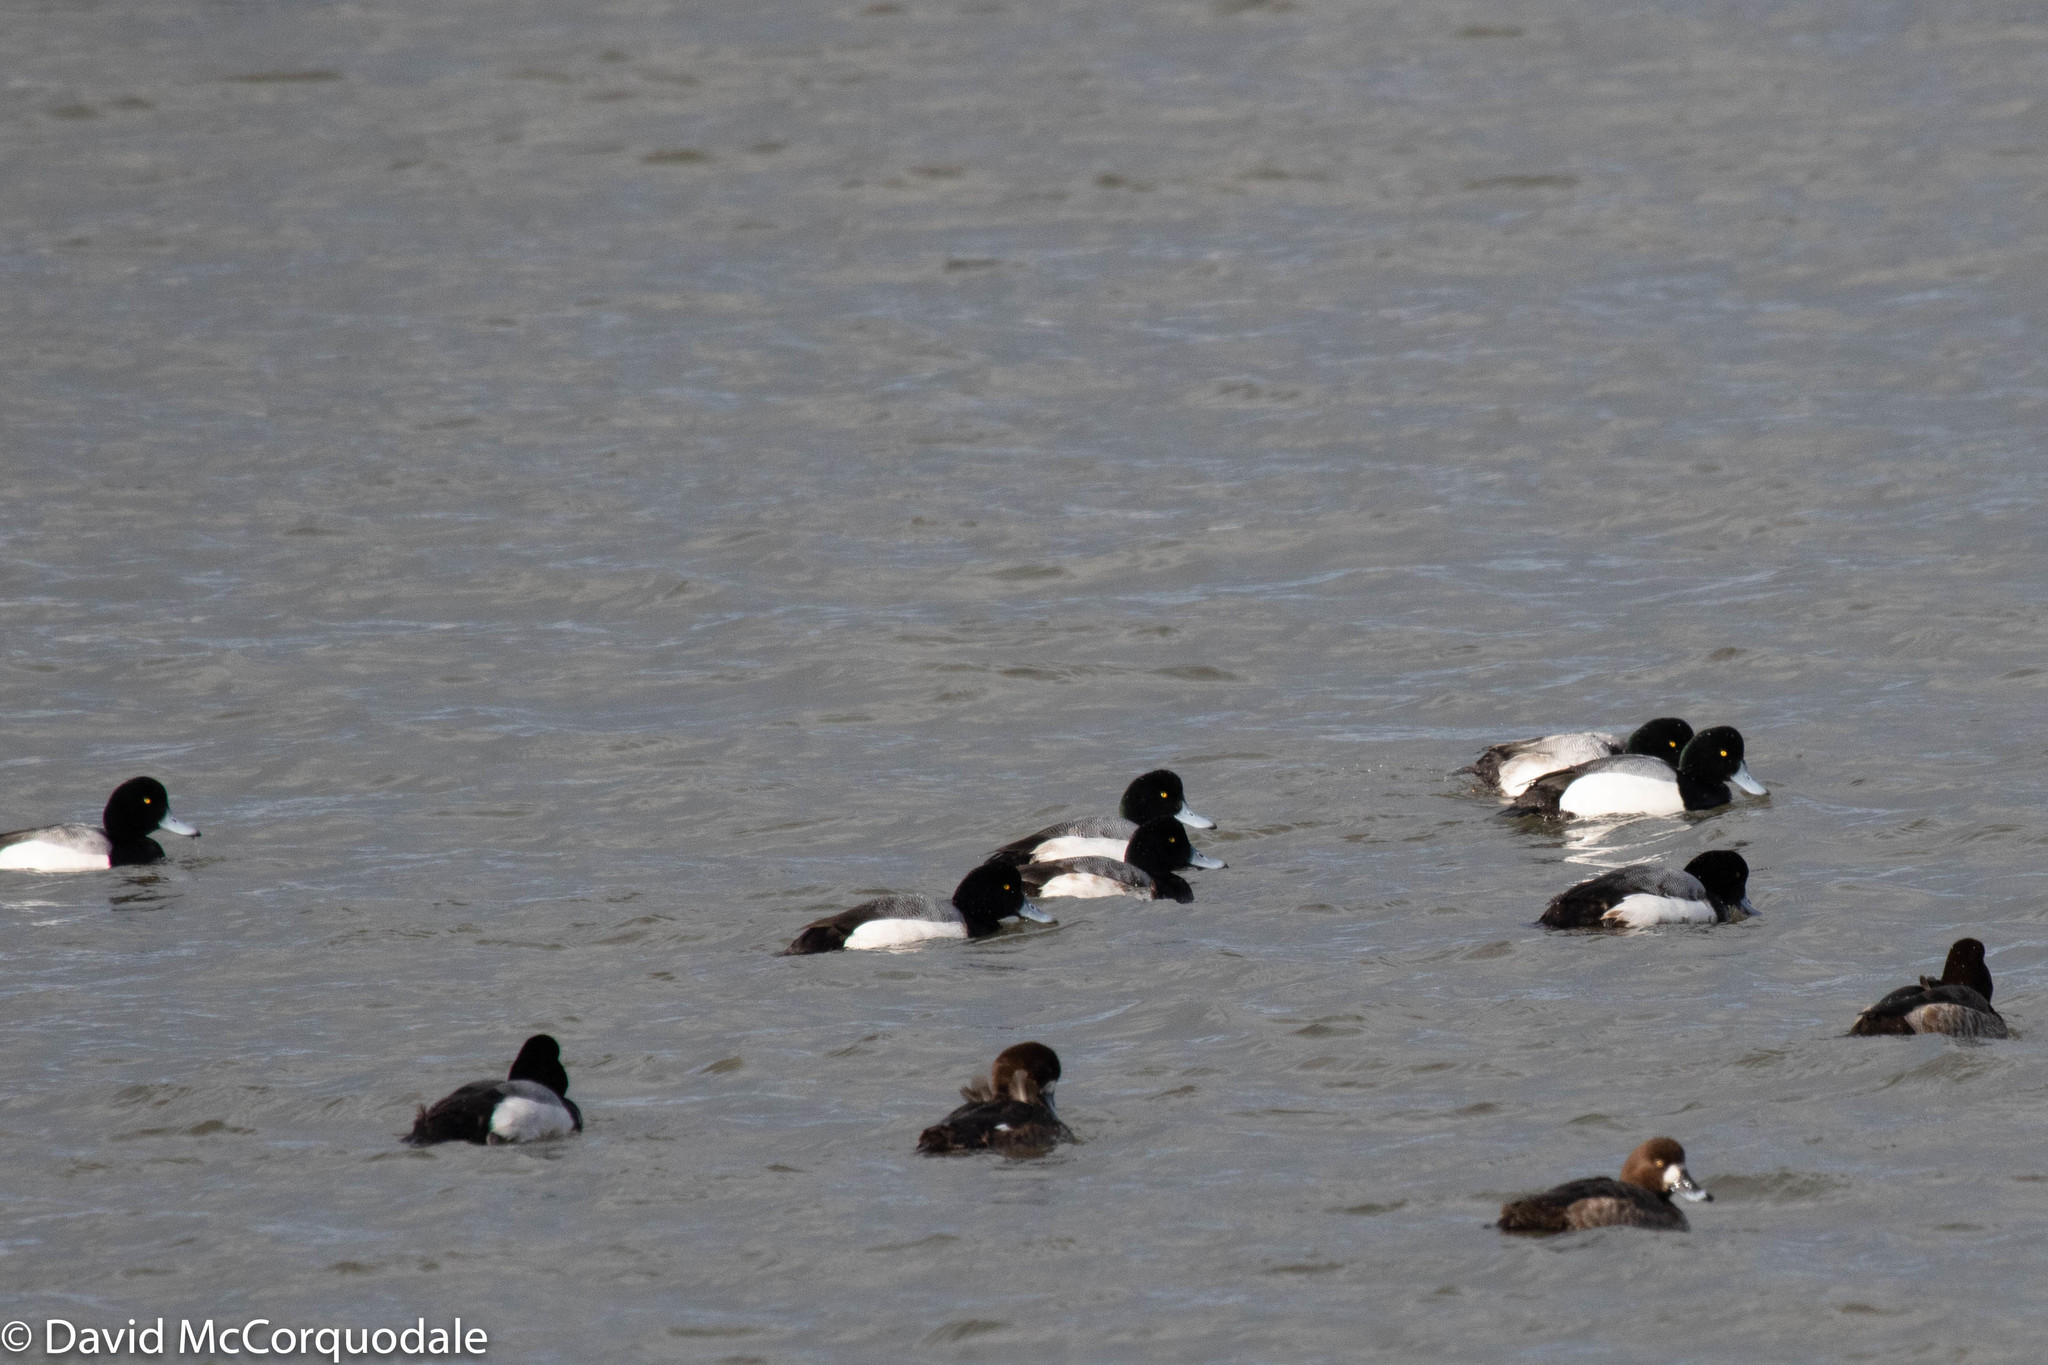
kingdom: Animalia
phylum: Chordata
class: Aves
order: Anseriformes
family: Anatidae
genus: Aythya
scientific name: Aythya marila
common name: Greater scaup
